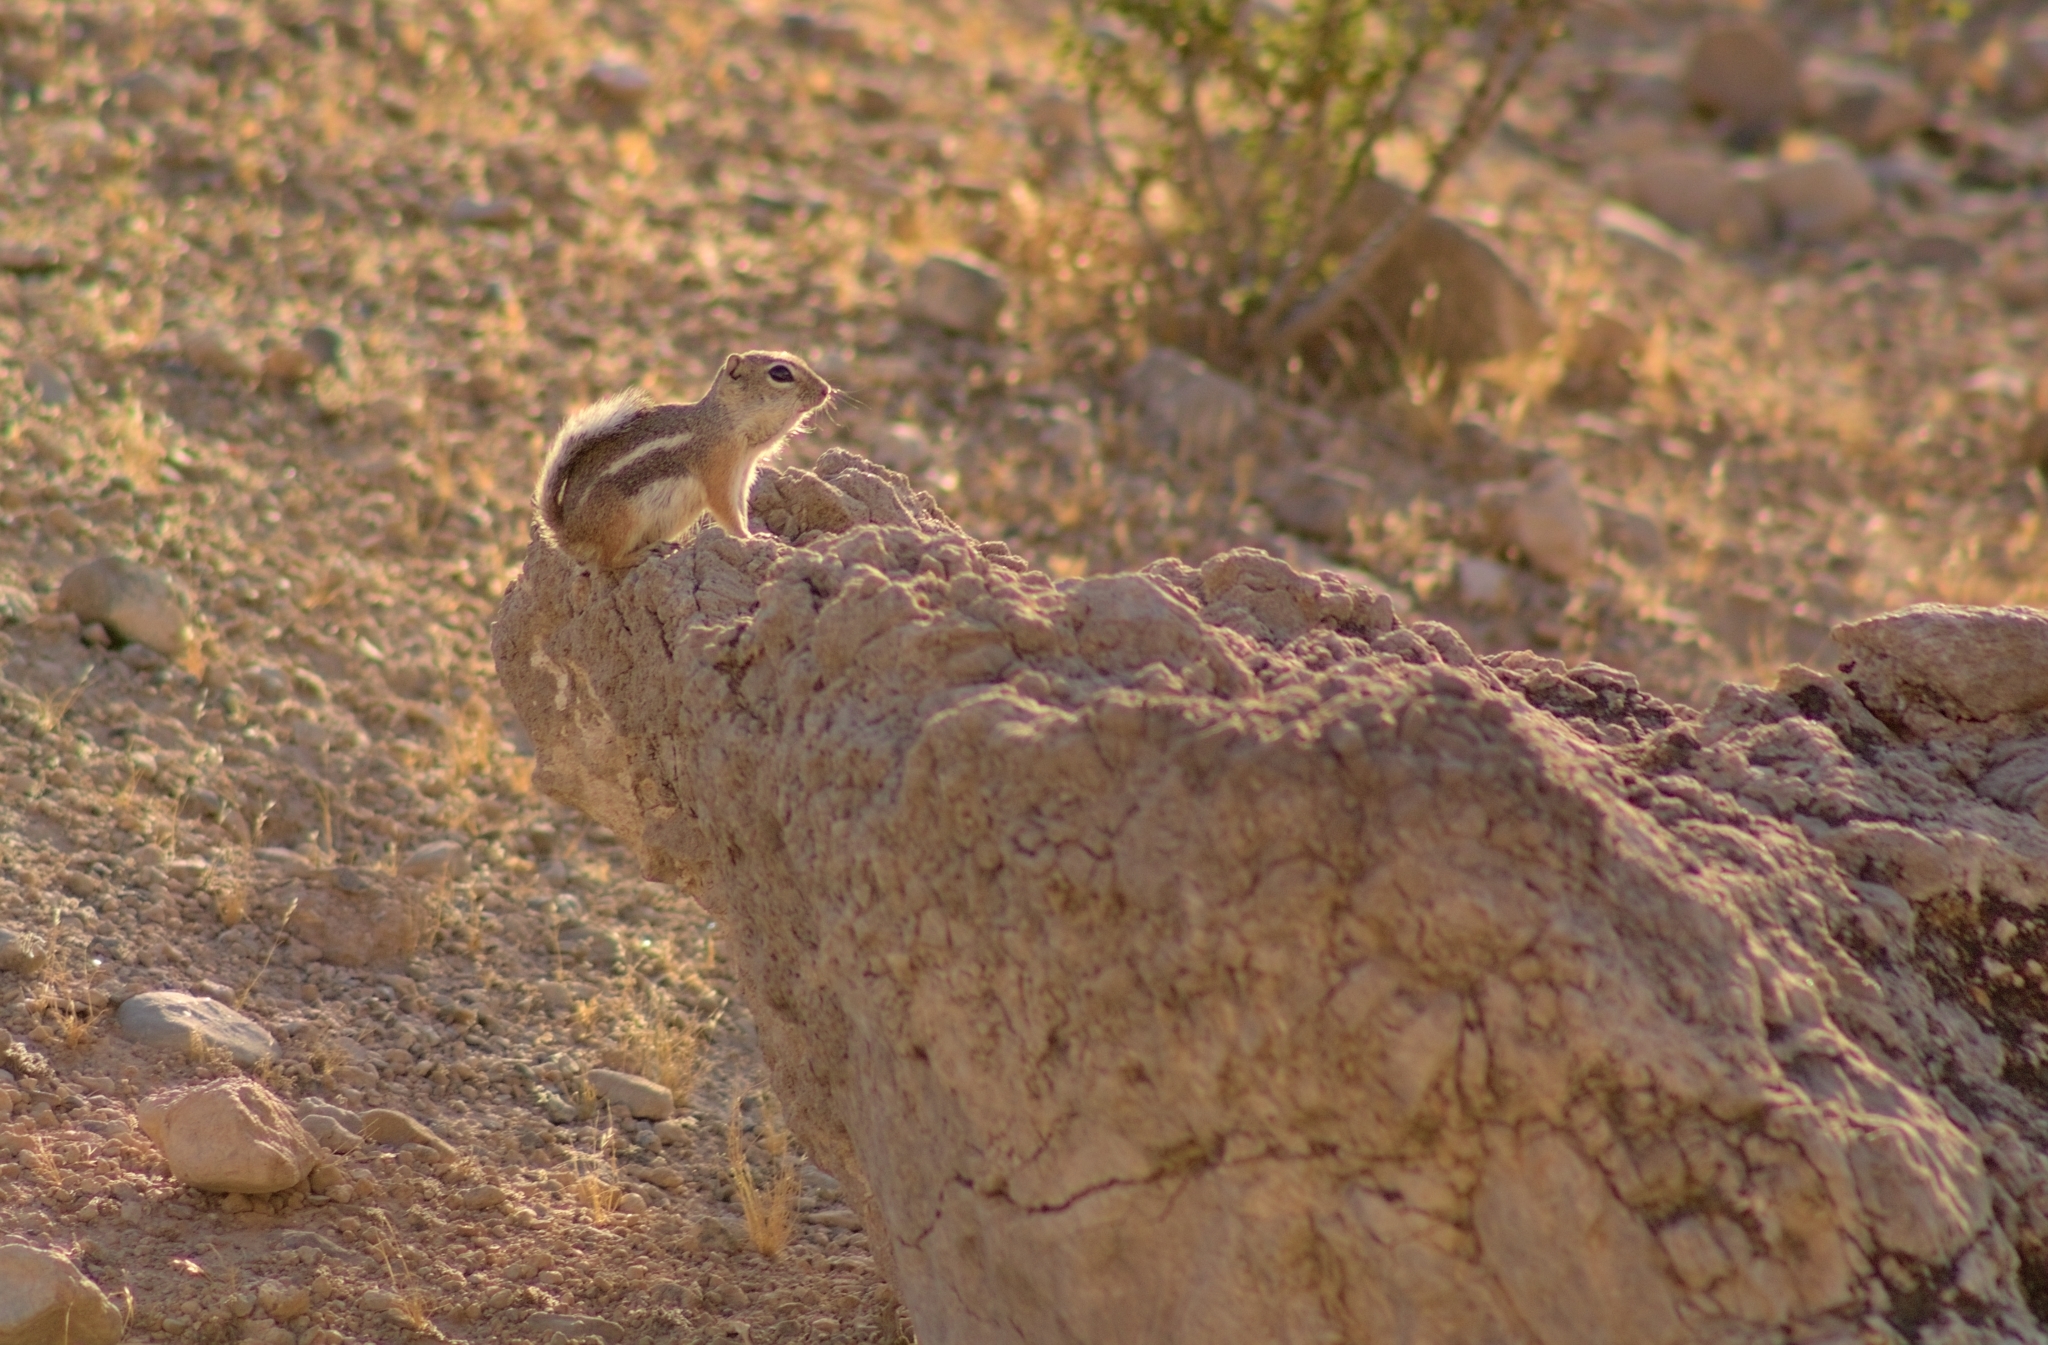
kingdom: Animalia
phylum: Chordata
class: Mammalia
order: Rodentia
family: Sciuridae
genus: Ammospermophilus
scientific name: Ammospermophilus leucurus
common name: White-tailed antelope squirrel
